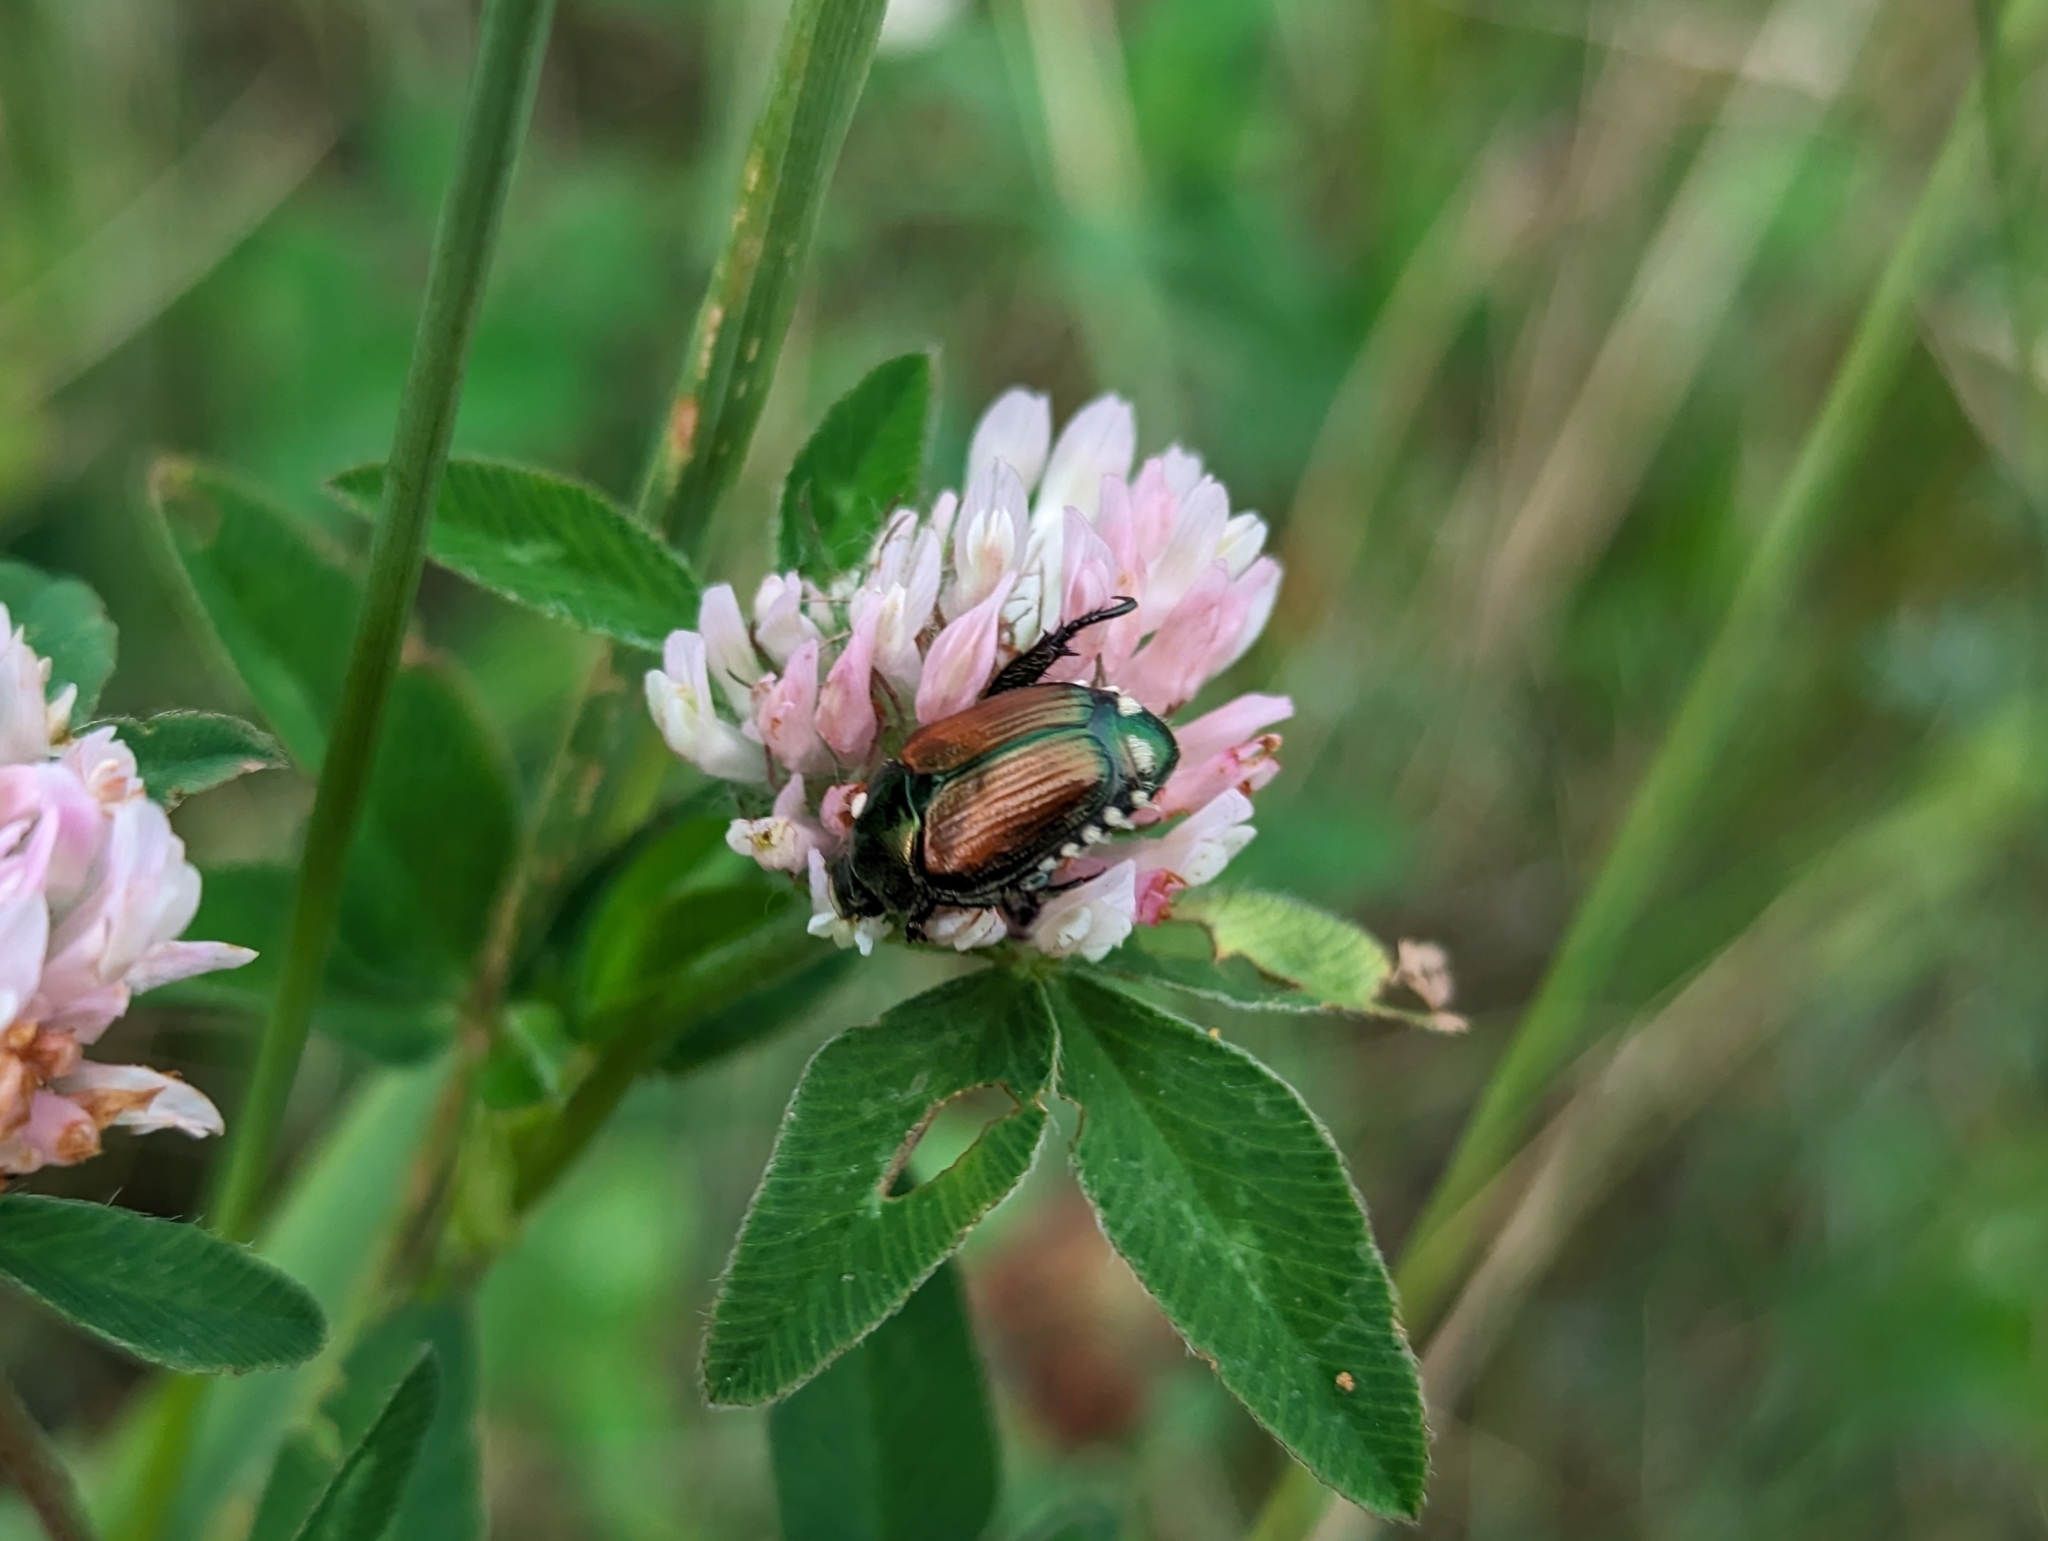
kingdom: Animalia
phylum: Arthropoda
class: Insecta
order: Coleoptera
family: Scarabaeidae
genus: Popillia
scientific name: Popillia japonica
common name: Japanese beetle
